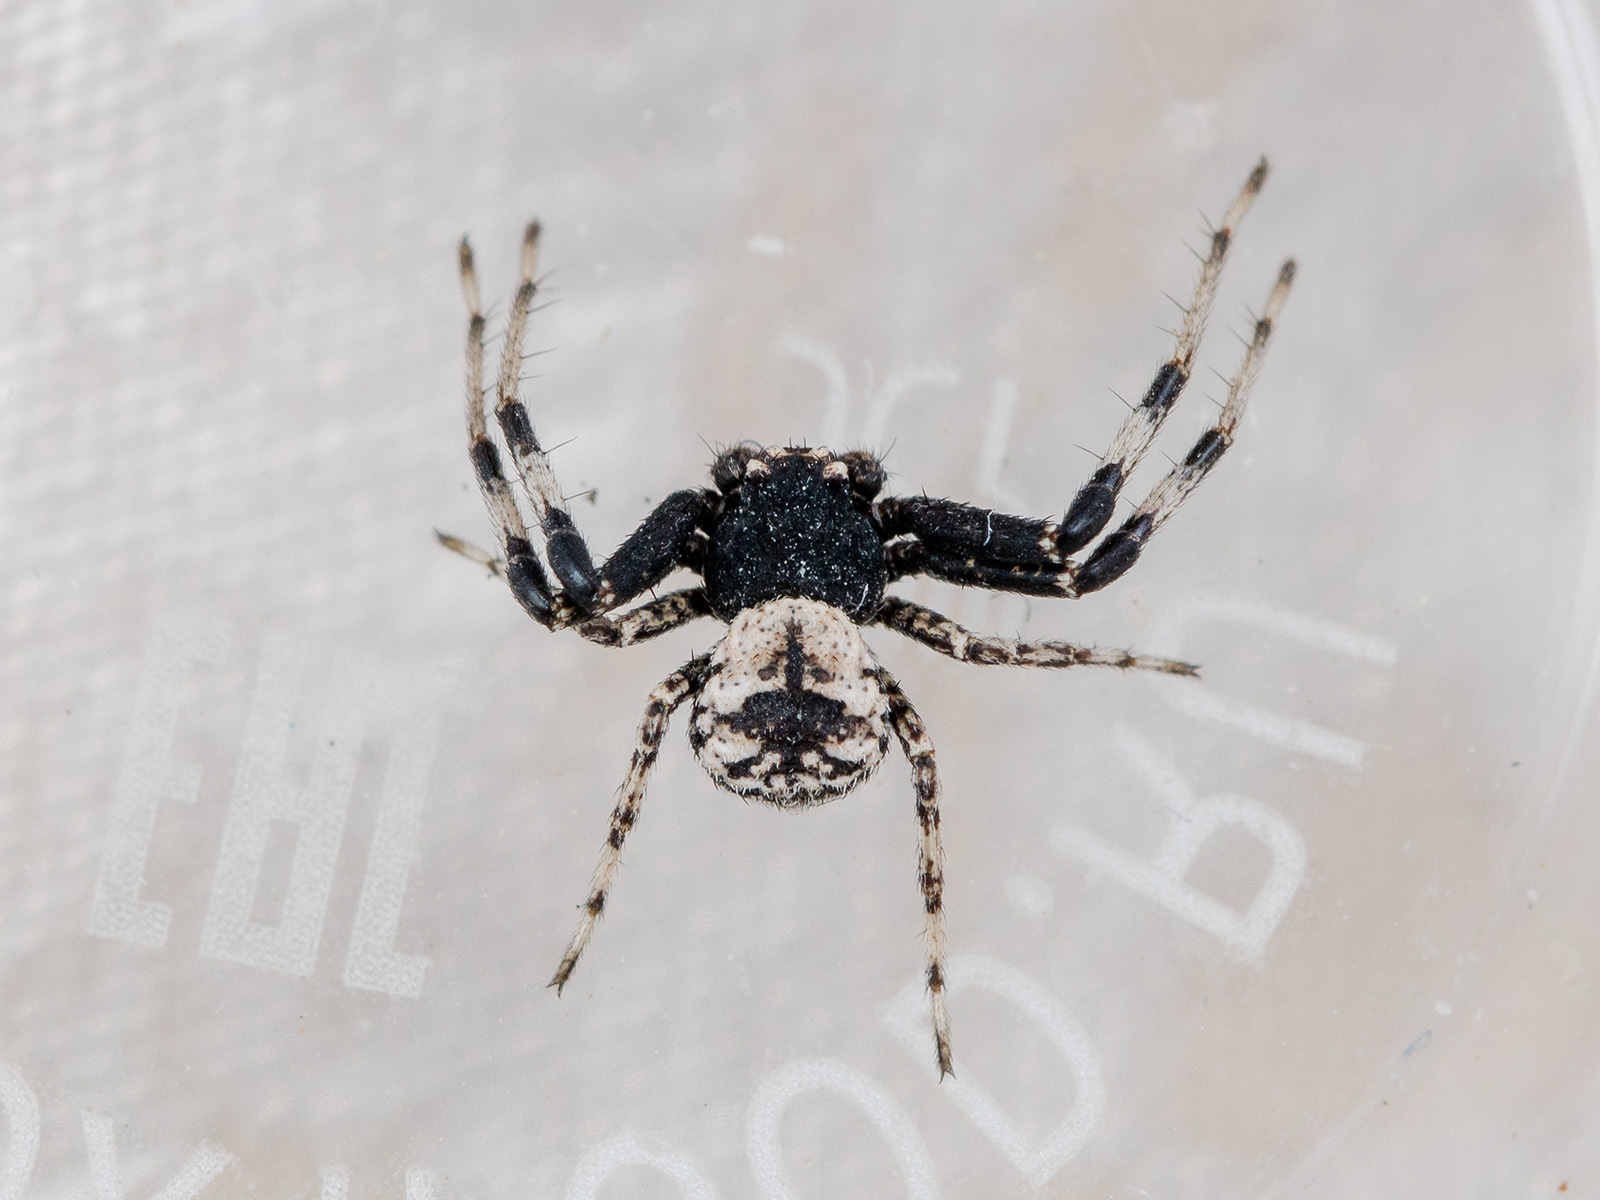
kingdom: Animalia
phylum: Arthropoda
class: Arachnida
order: Araneae
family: Thomisidae
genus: Ozyptila
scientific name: Ozyptila tuberosa
